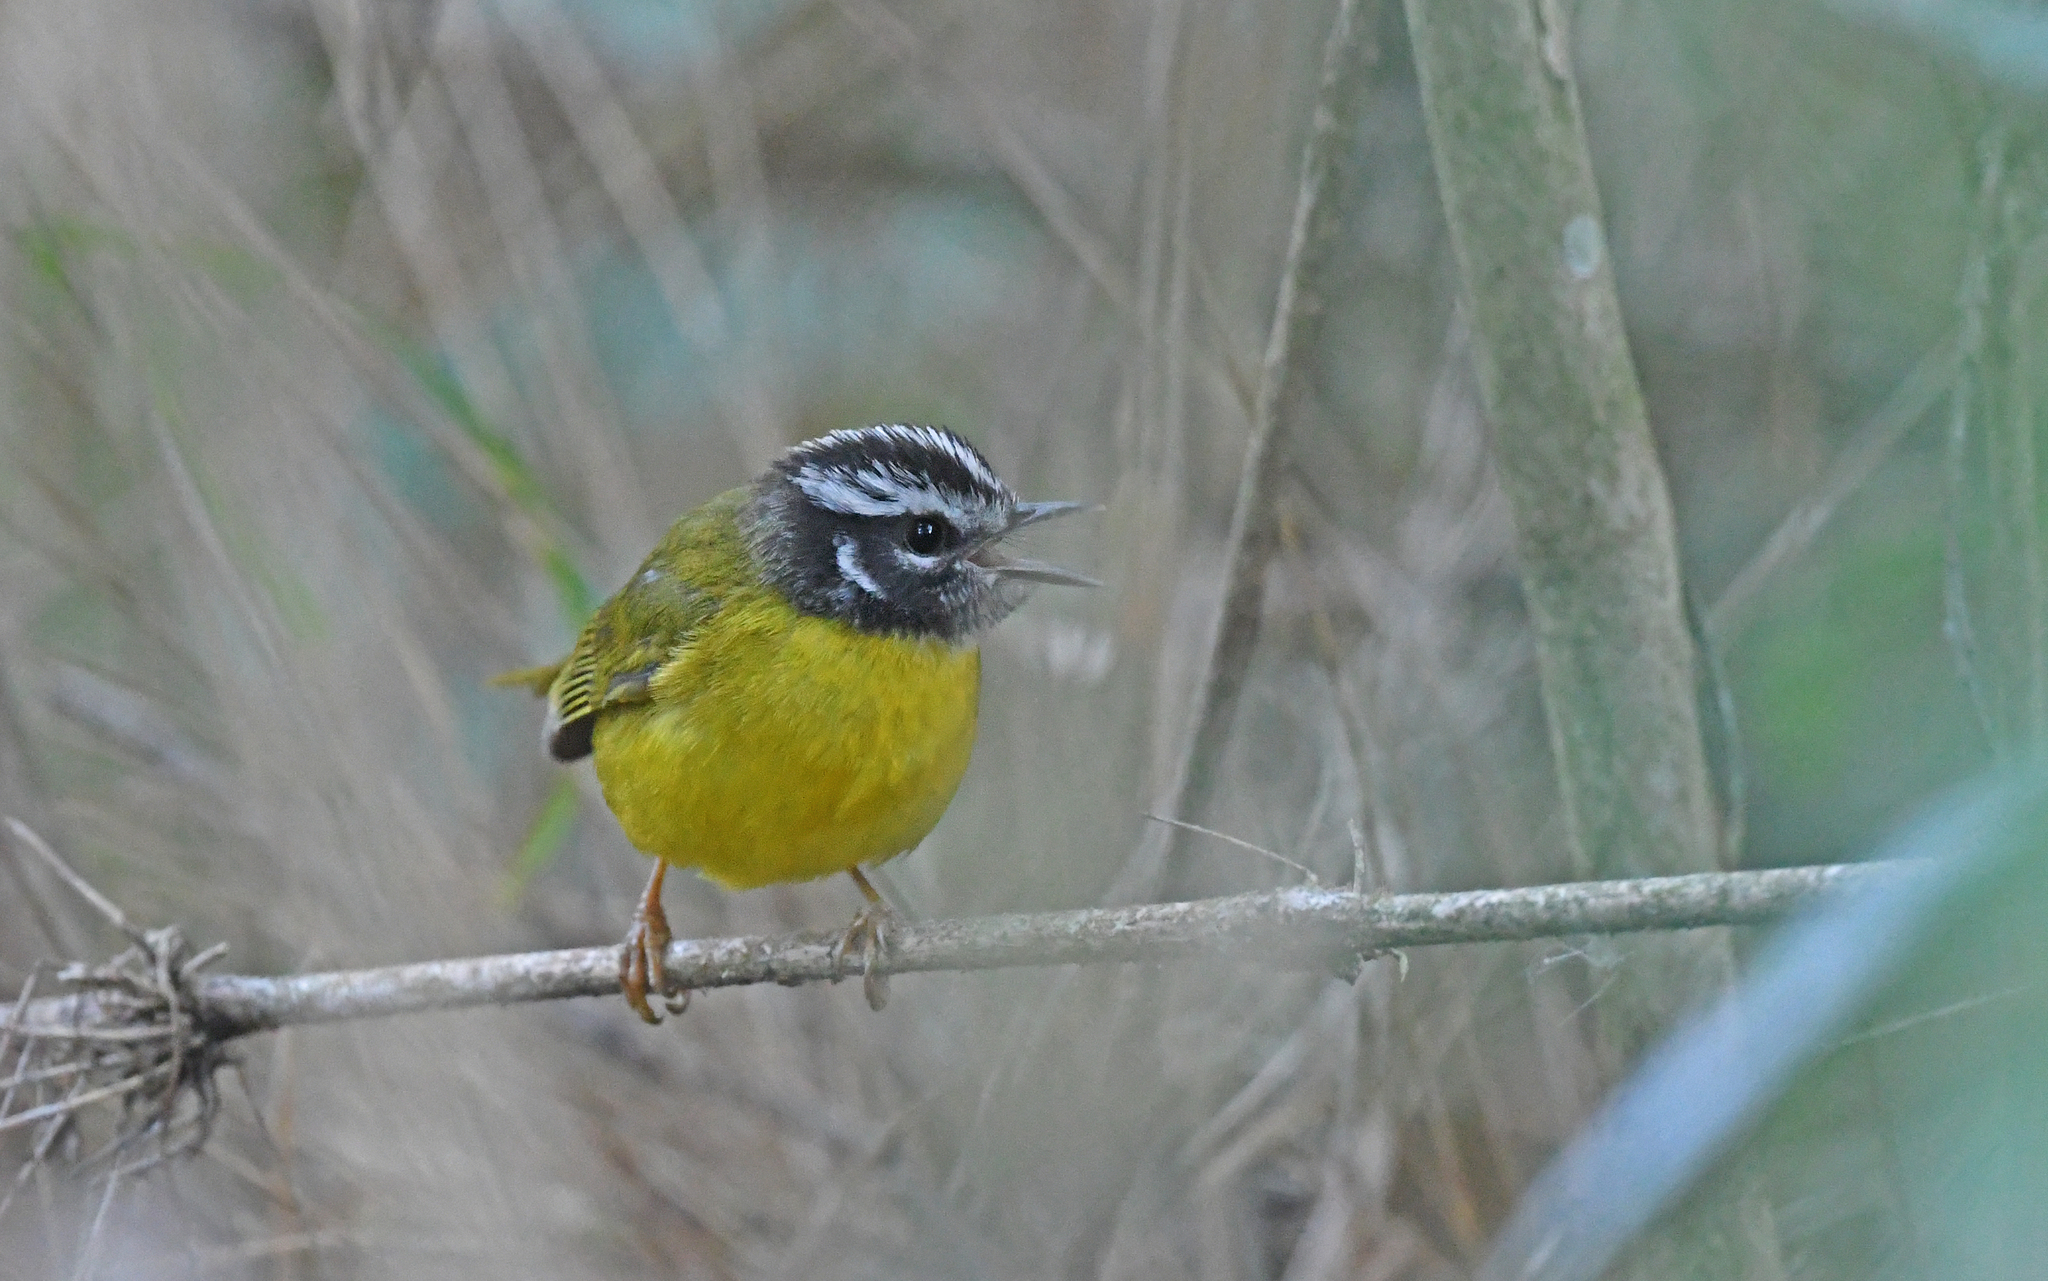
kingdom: Animalia
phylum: Chordata
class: Aves
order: Passeriformes
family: Parulidae
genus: Basileuterus
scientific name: Basileuterus basilicus
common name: Santa marta warbler
